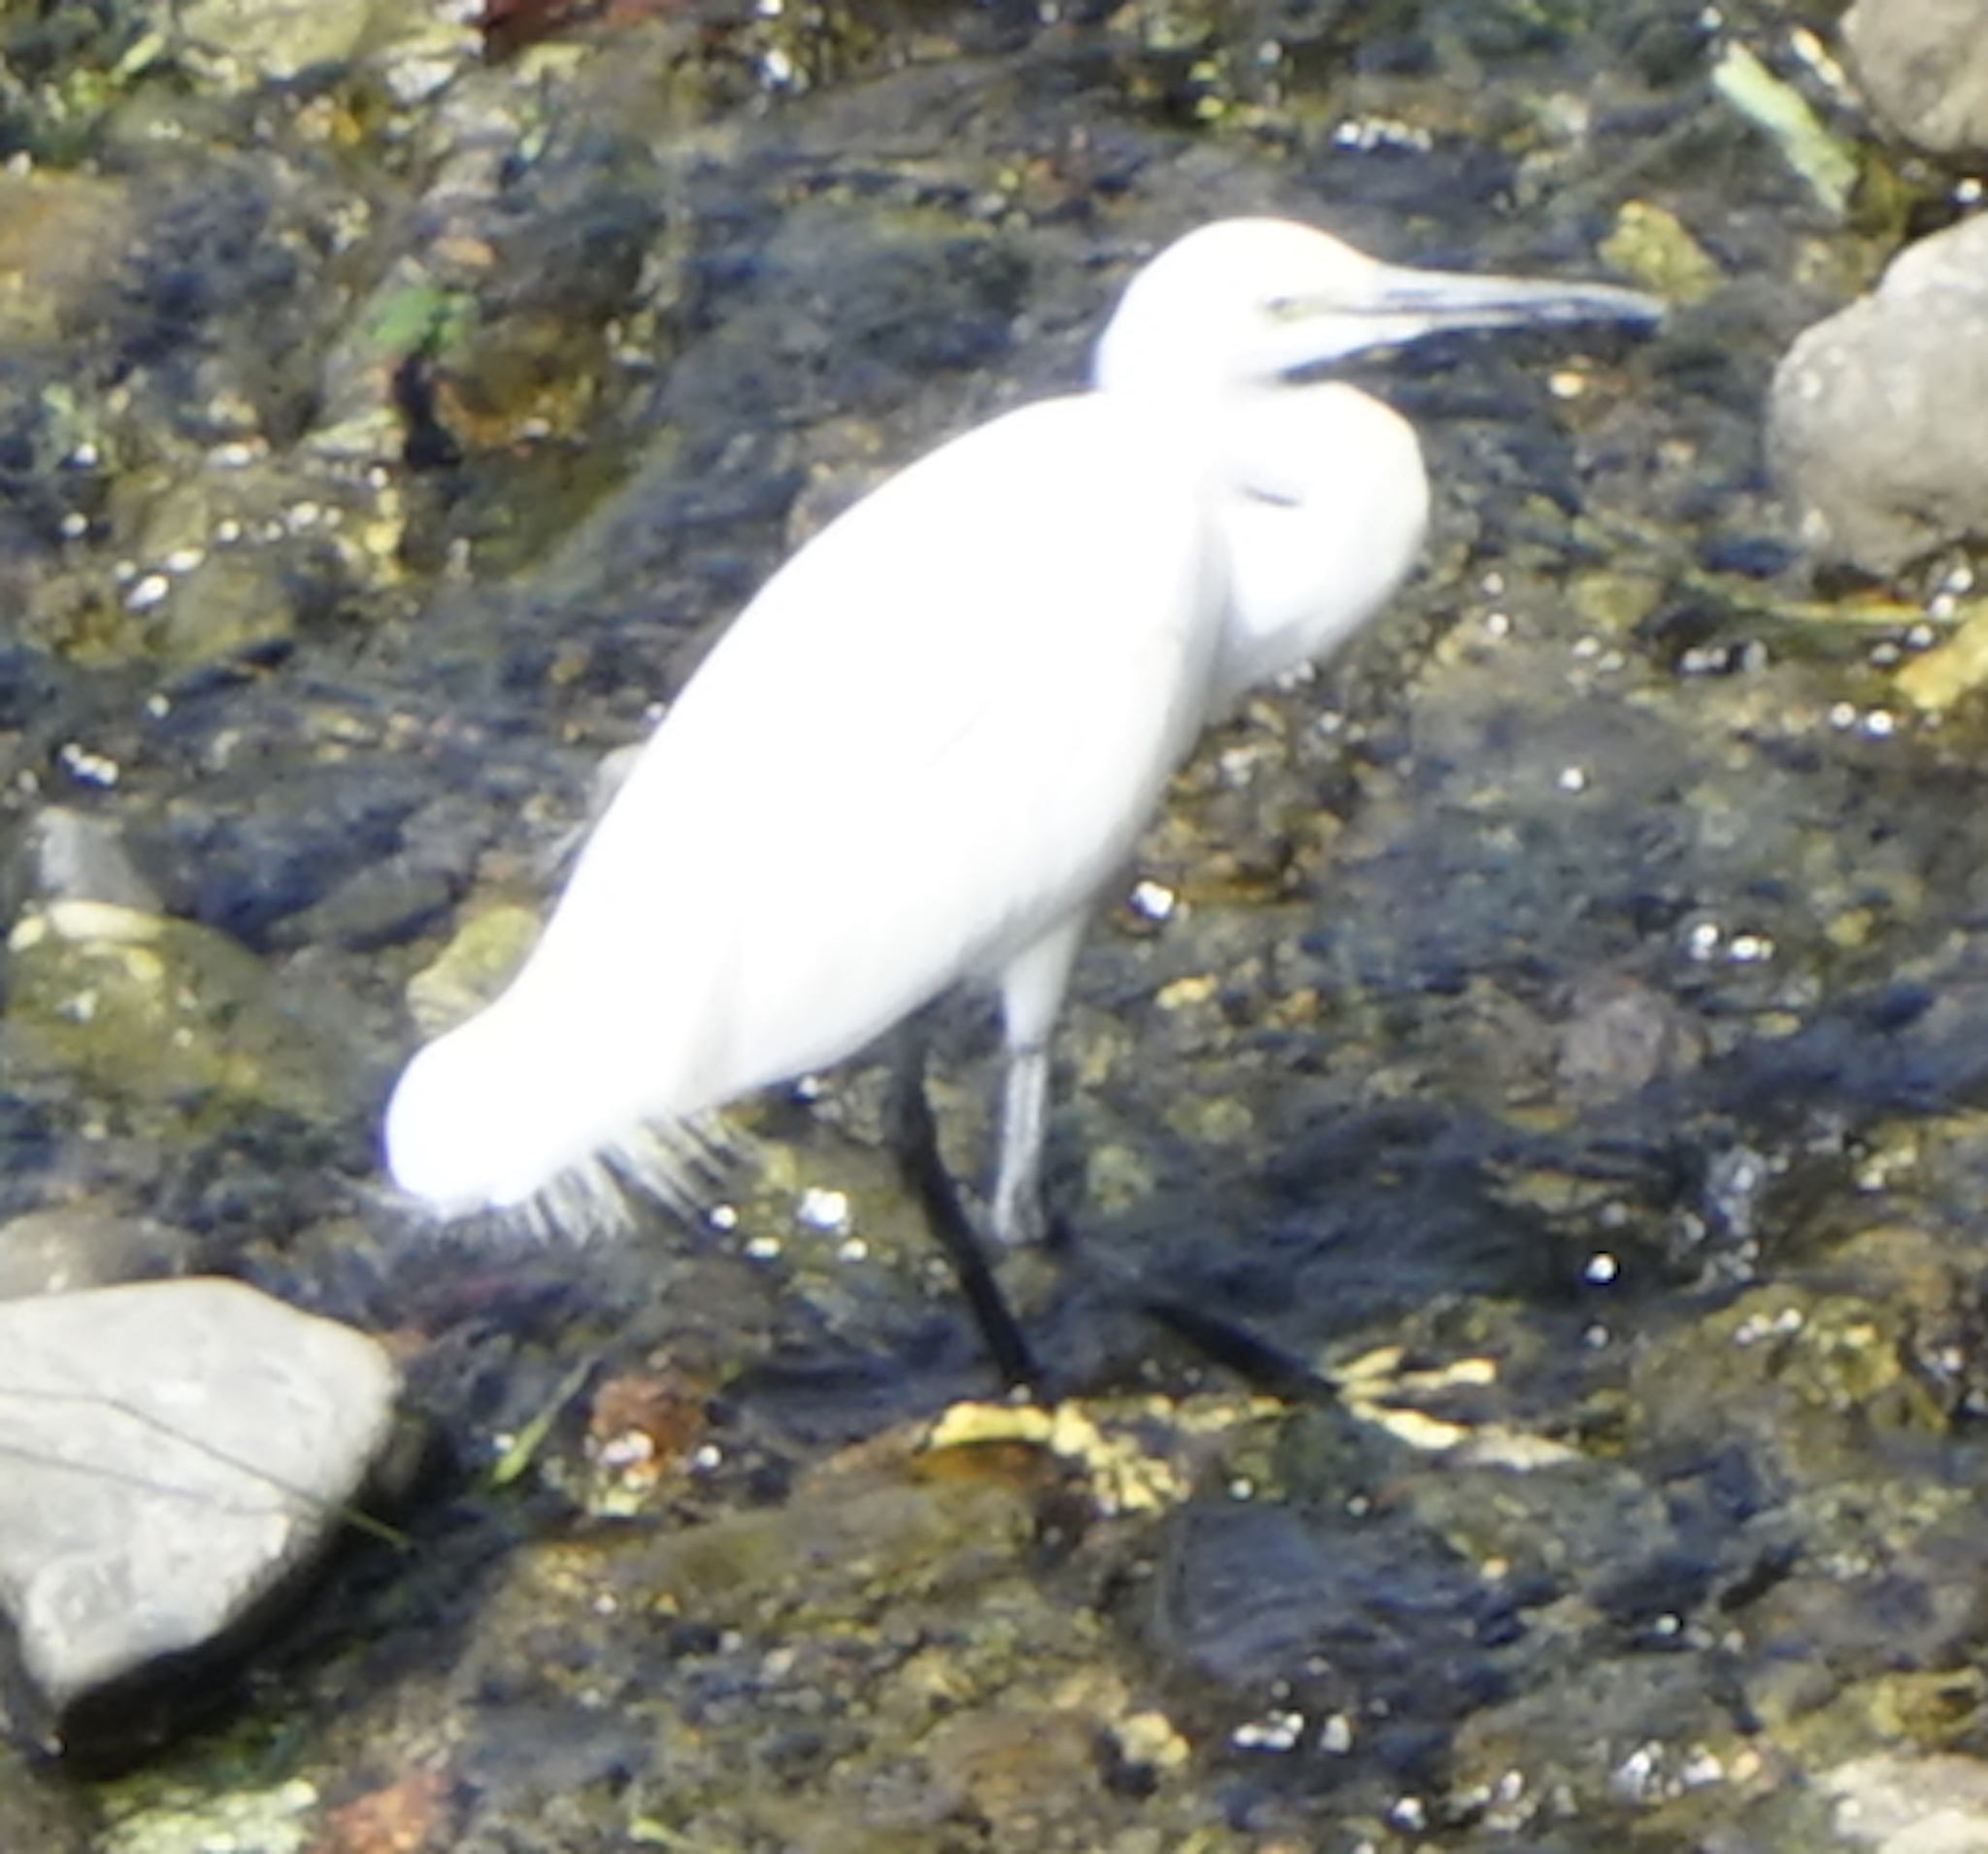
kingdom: Animalia
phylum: Chordata
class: Aves
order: Pelecaniformes
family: Ardeidae
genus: Egretta
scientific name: Egretta garzetta
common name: Little egret
